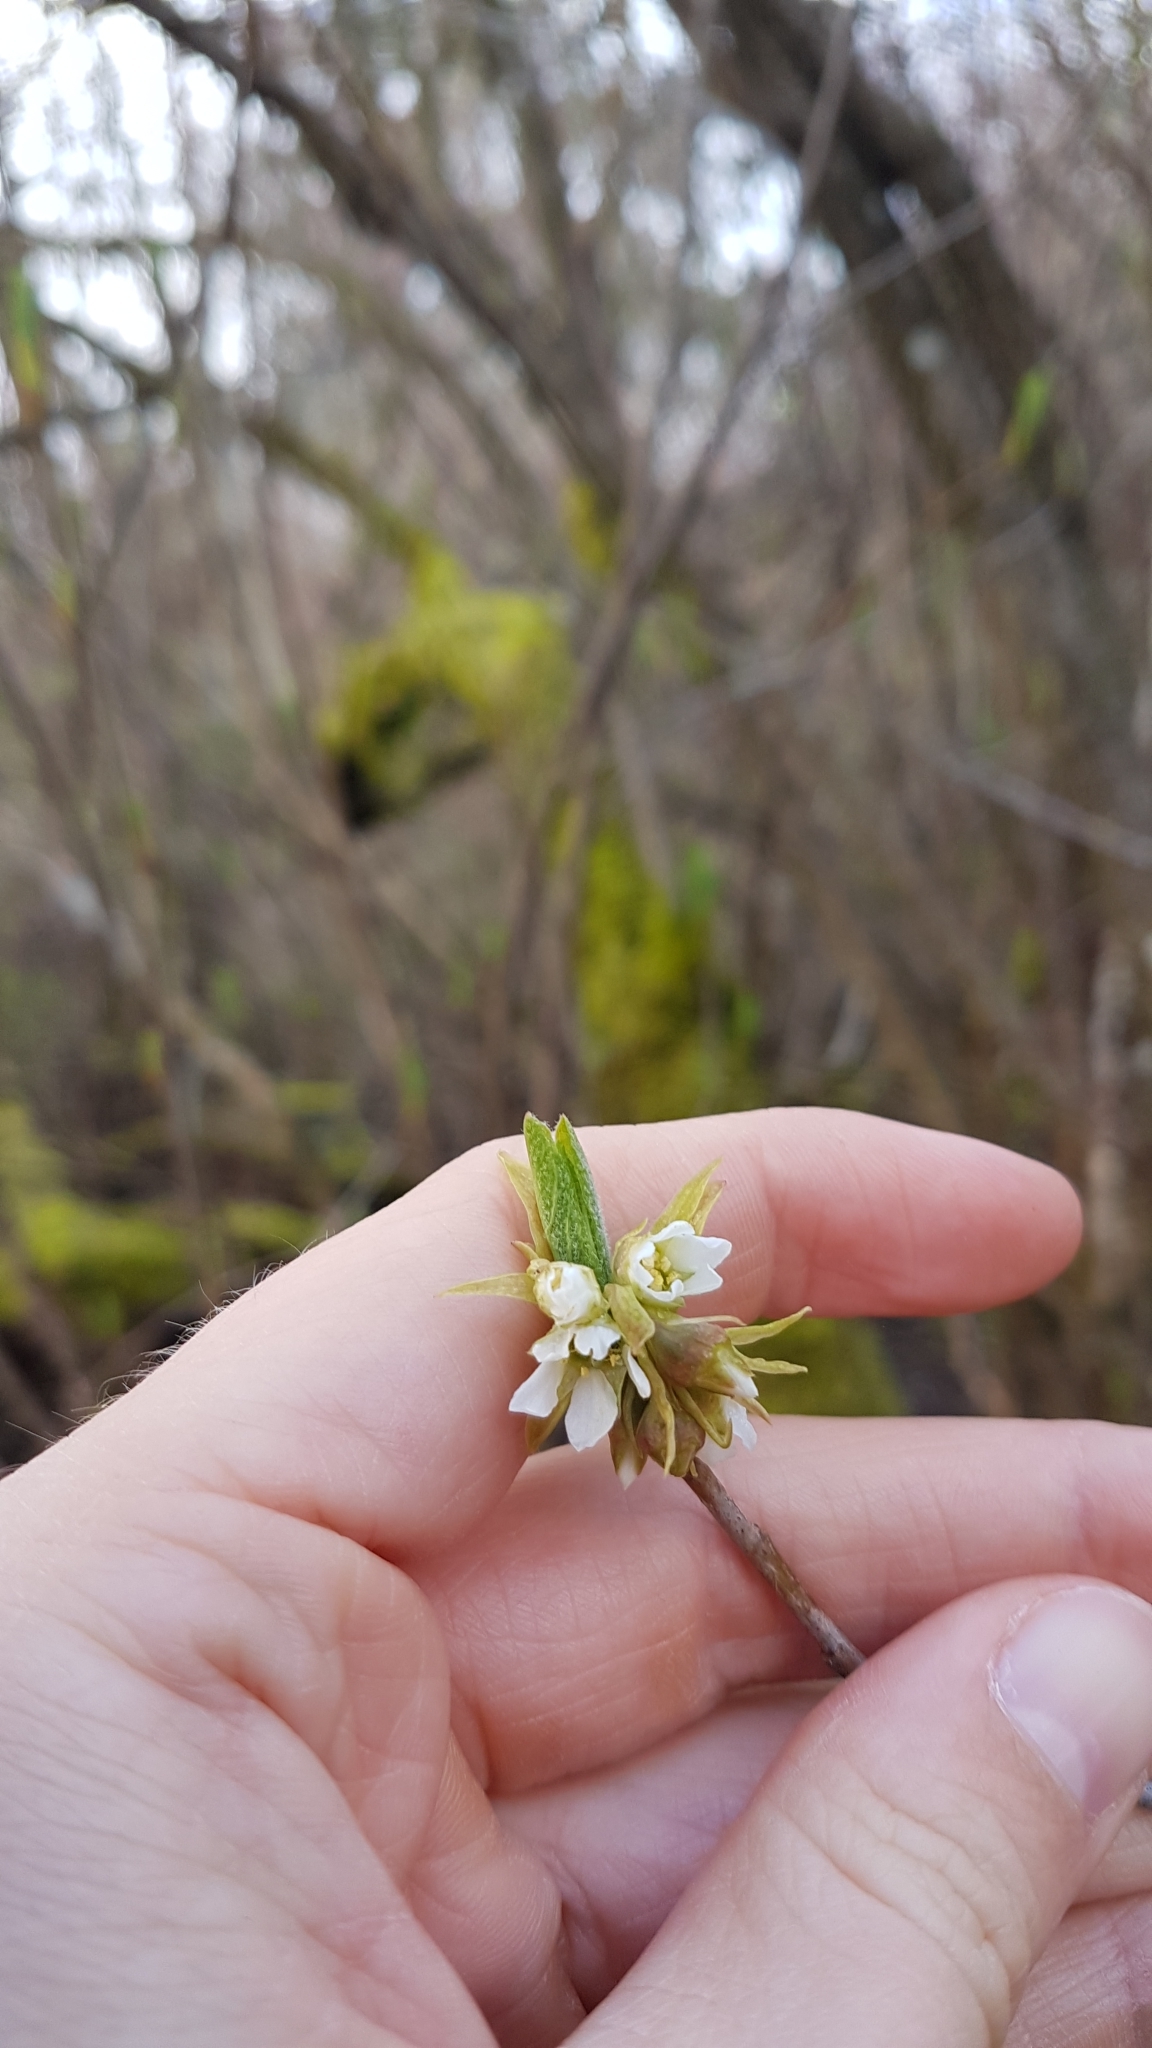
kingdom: Plantae
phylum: Tracheophyta
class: Magnoliopsida
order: Rosales
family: Rosaceae
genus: Oemleria
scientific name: Oemleria cerasiformis
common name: Osoberry
